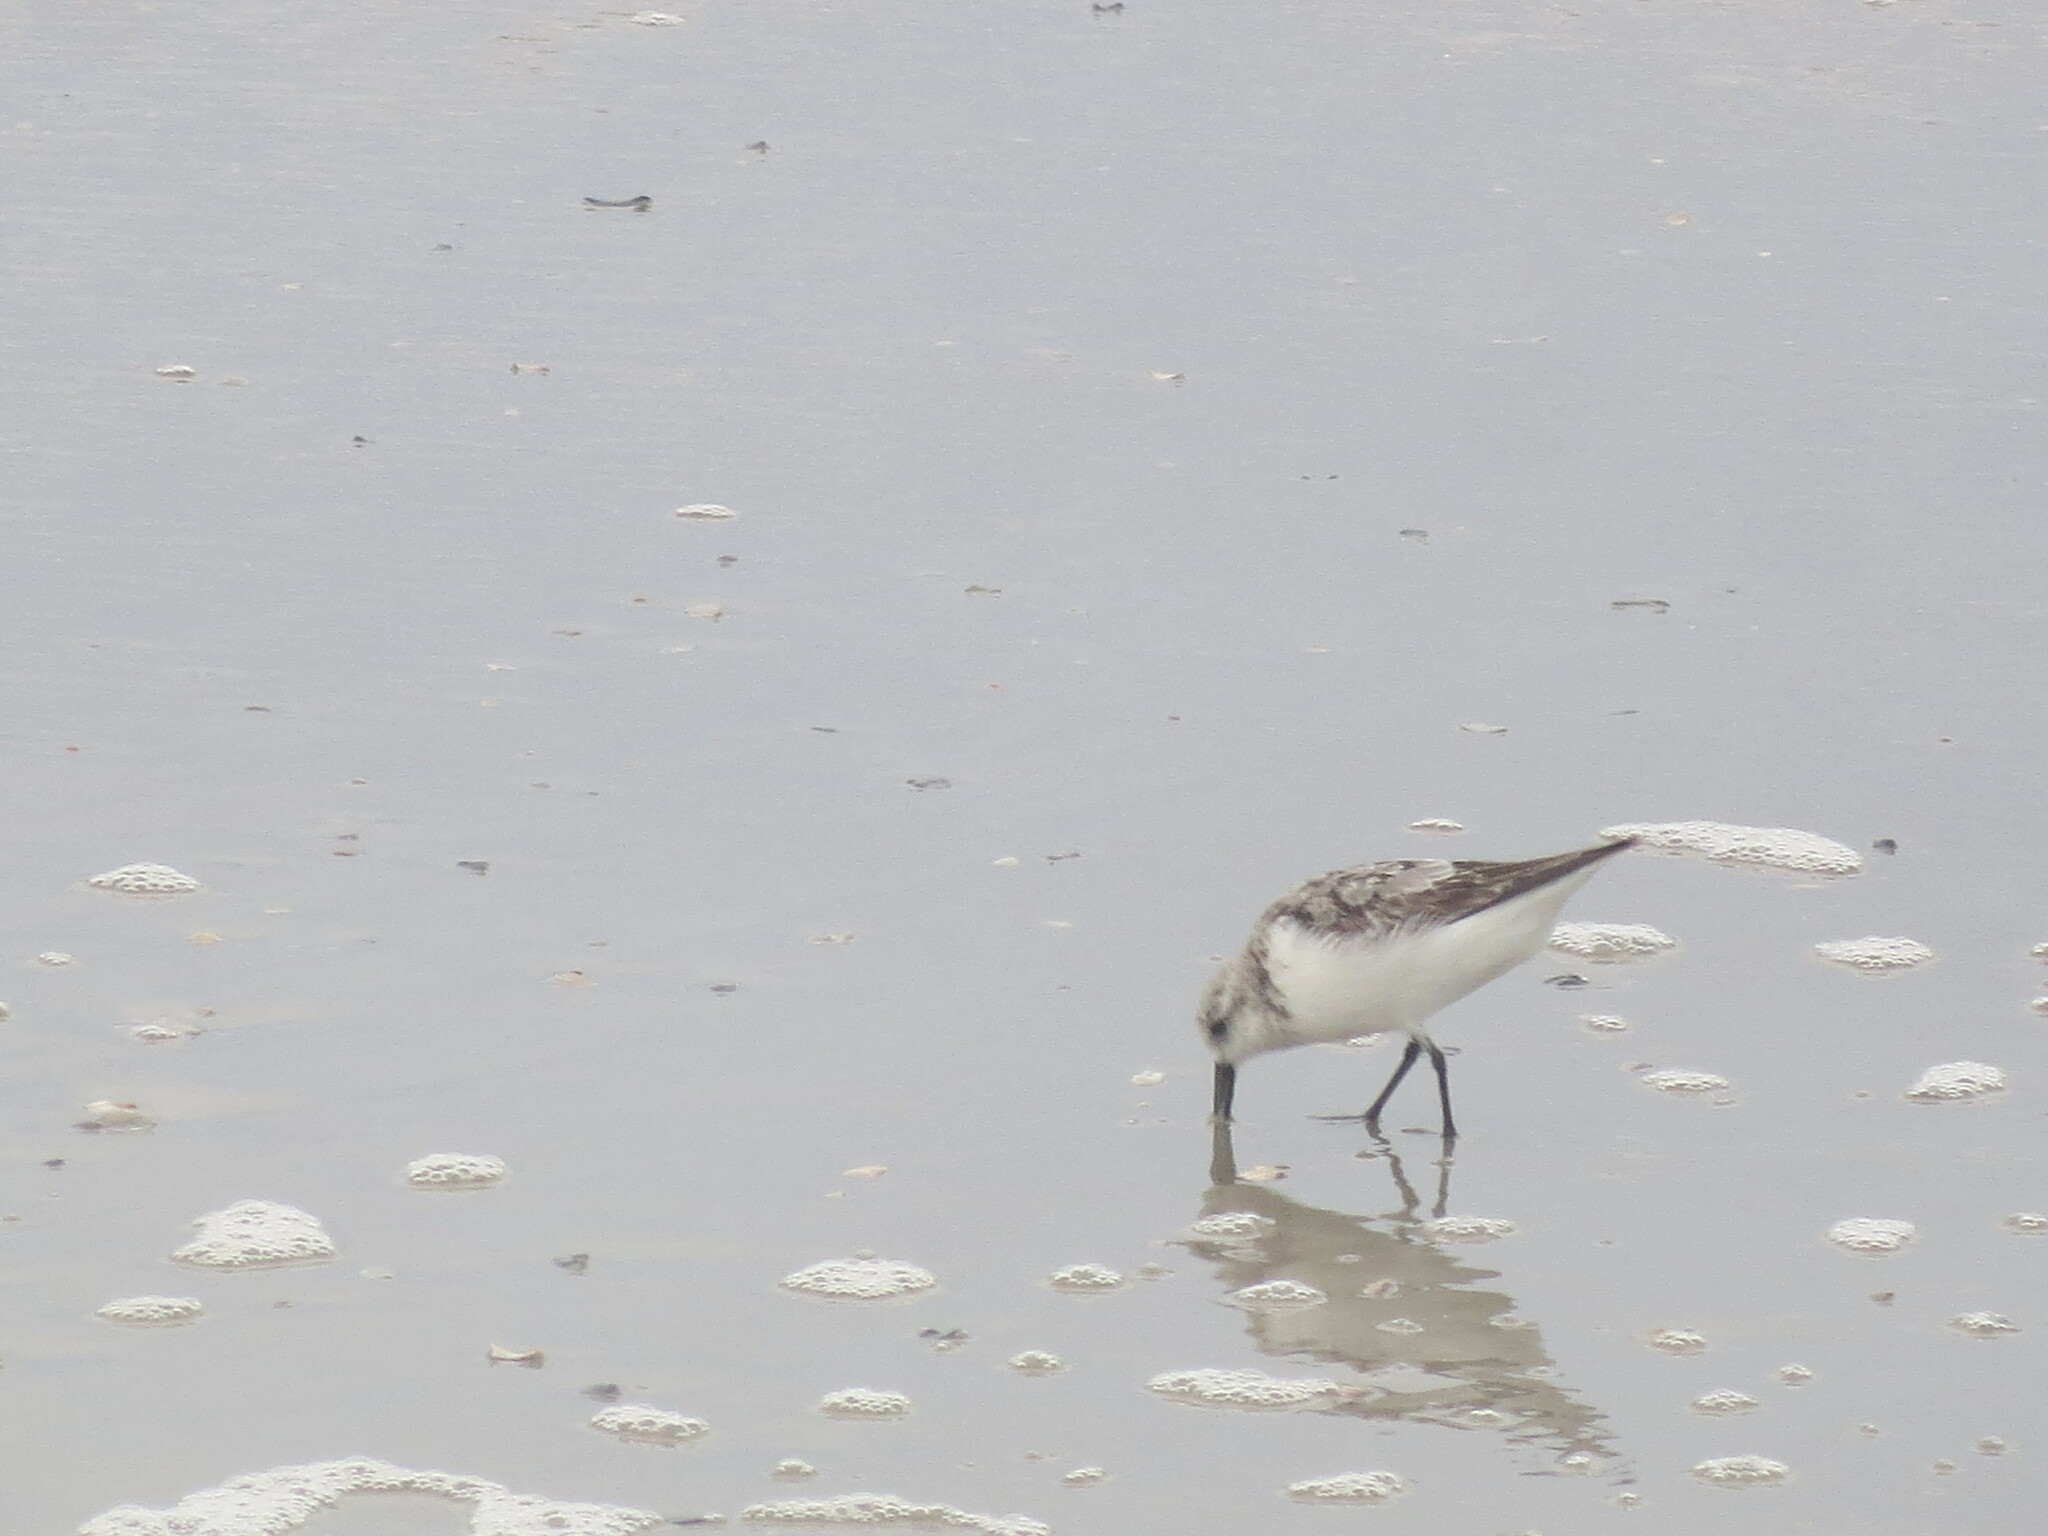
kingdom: Animalia
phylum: Chordata
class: Aves
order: Charadriiformes
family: Scolopacidae
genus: Calidris
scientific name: Calidris alba
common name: Sanderling
